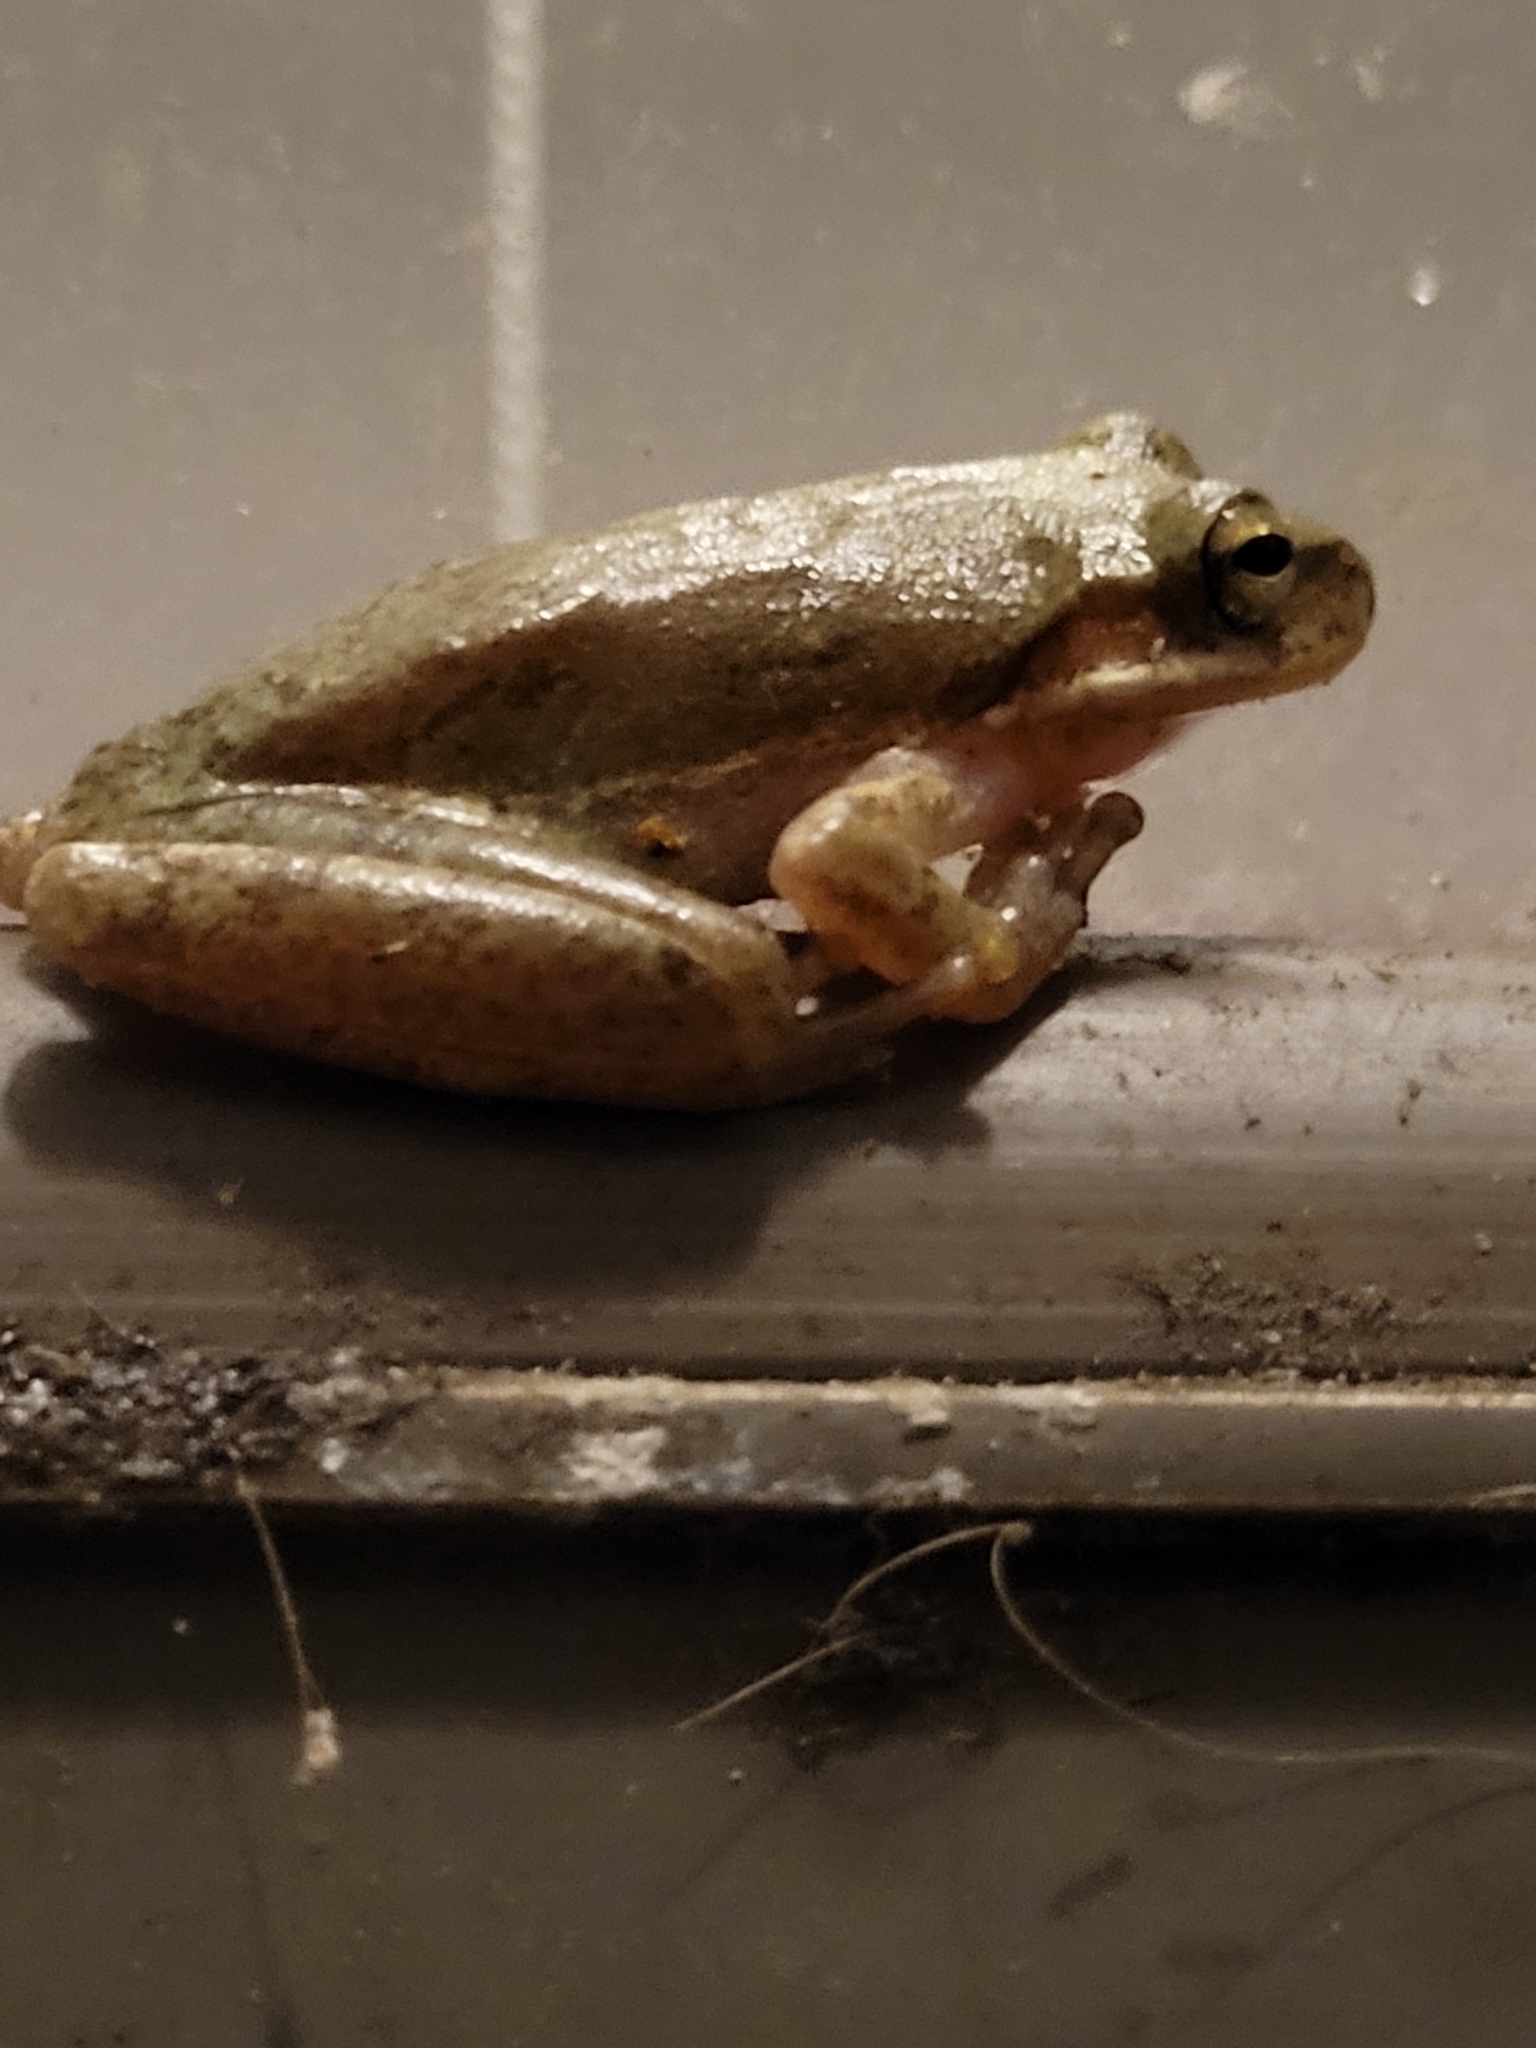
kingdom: Animalia
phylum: Chordata
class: Amphibia
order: Anura
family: Hylidae
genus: Dryophytes
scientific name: Dryophytes squirellus
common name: Squirrel treefrog
